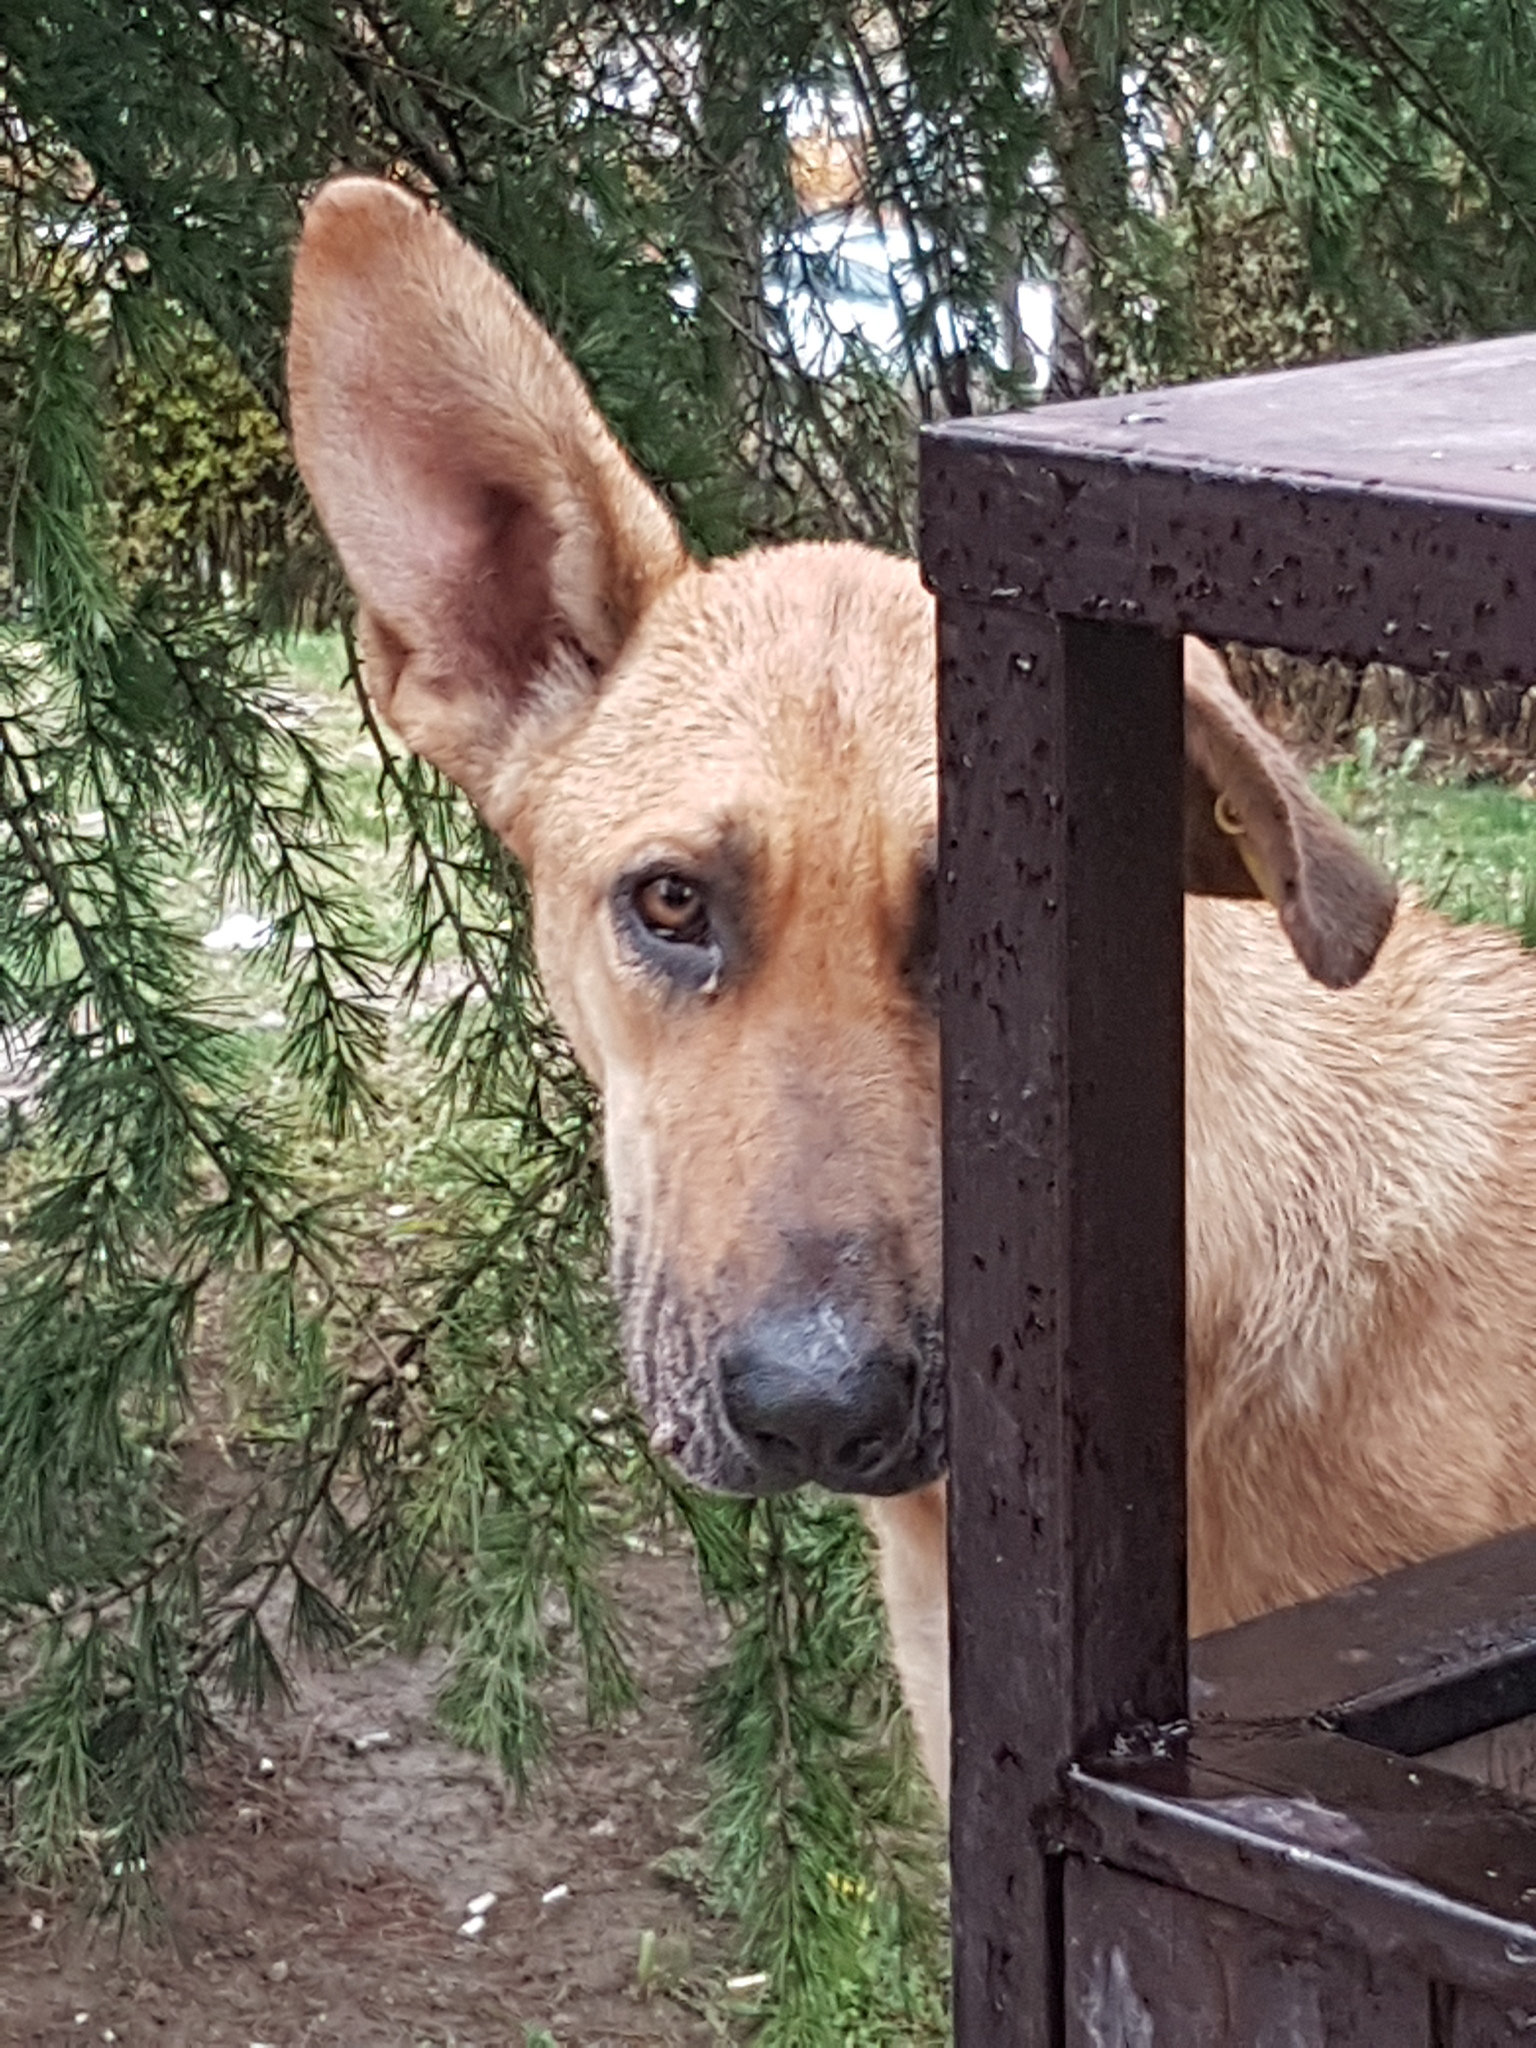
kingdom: Animalia
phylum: Chordata
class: Mammalia
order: Carnivora
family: Canidae
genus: Canis
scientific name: Canis lupus
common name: Gray wolf
